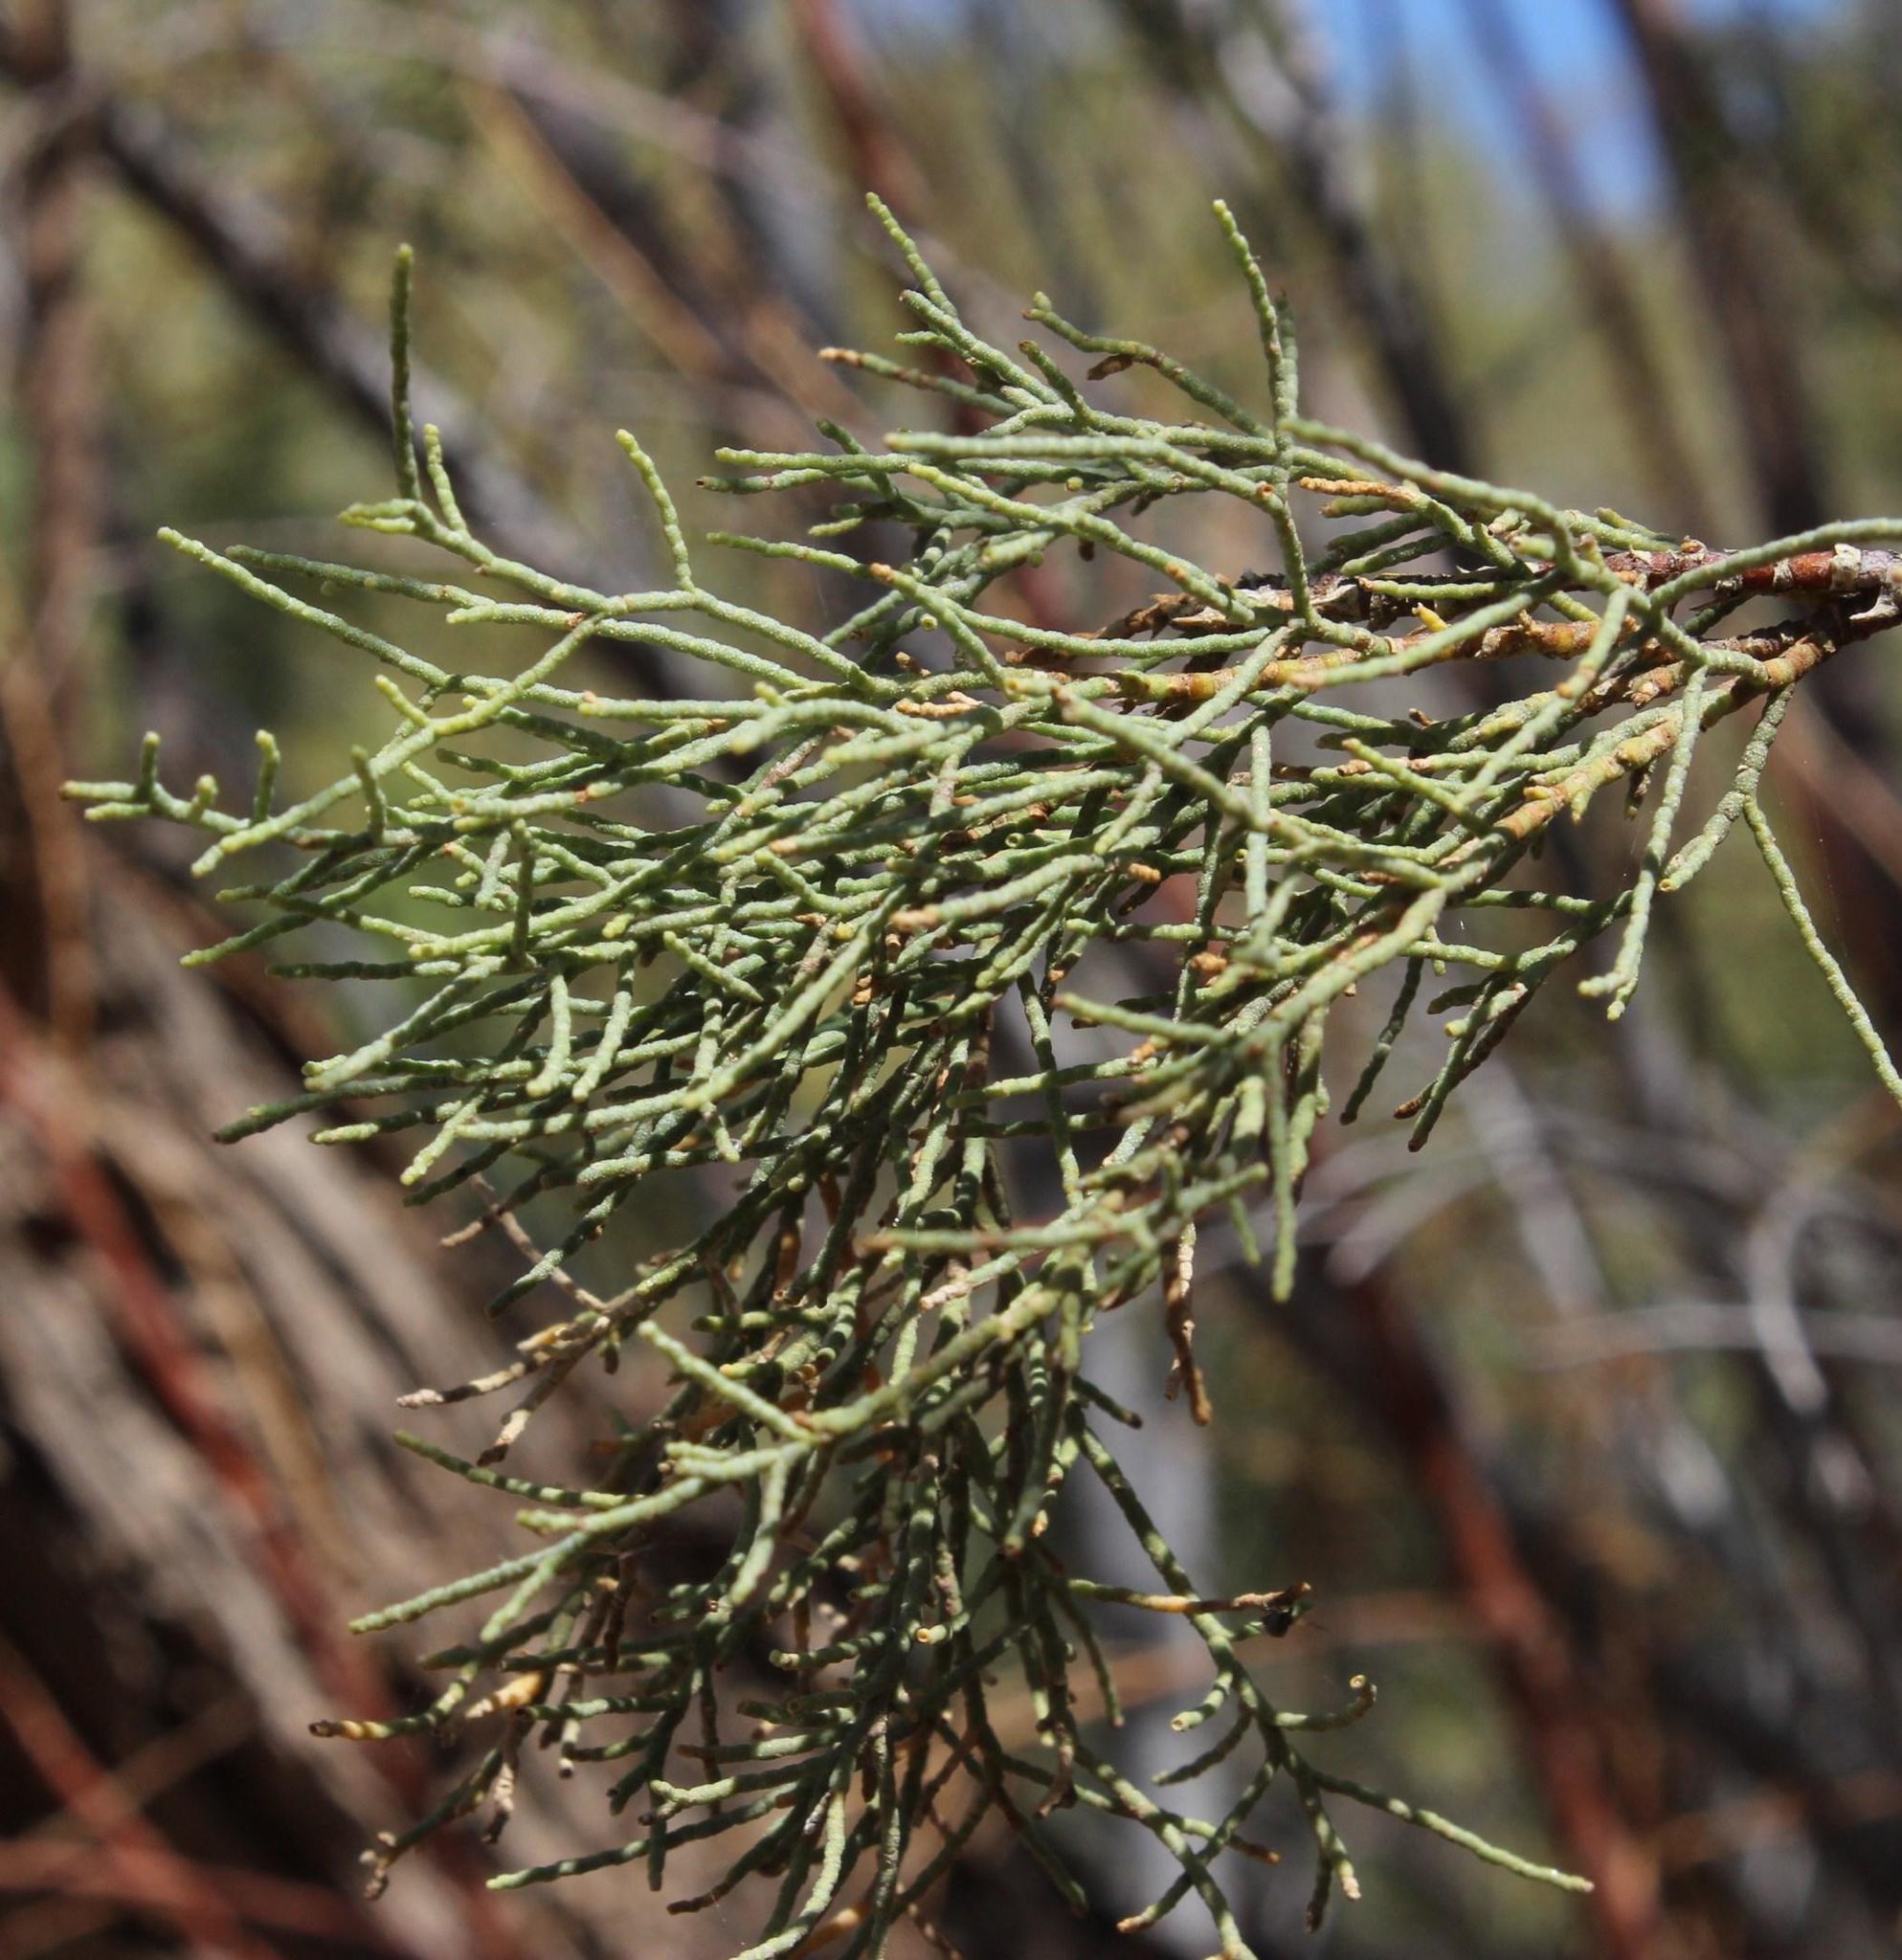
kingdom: Plantae
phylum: Tracheophyta
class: Magnoliopsida
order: Caryophyllales
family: Tamaricaceae
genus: Tamarix
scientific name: Tamarix usneoides
